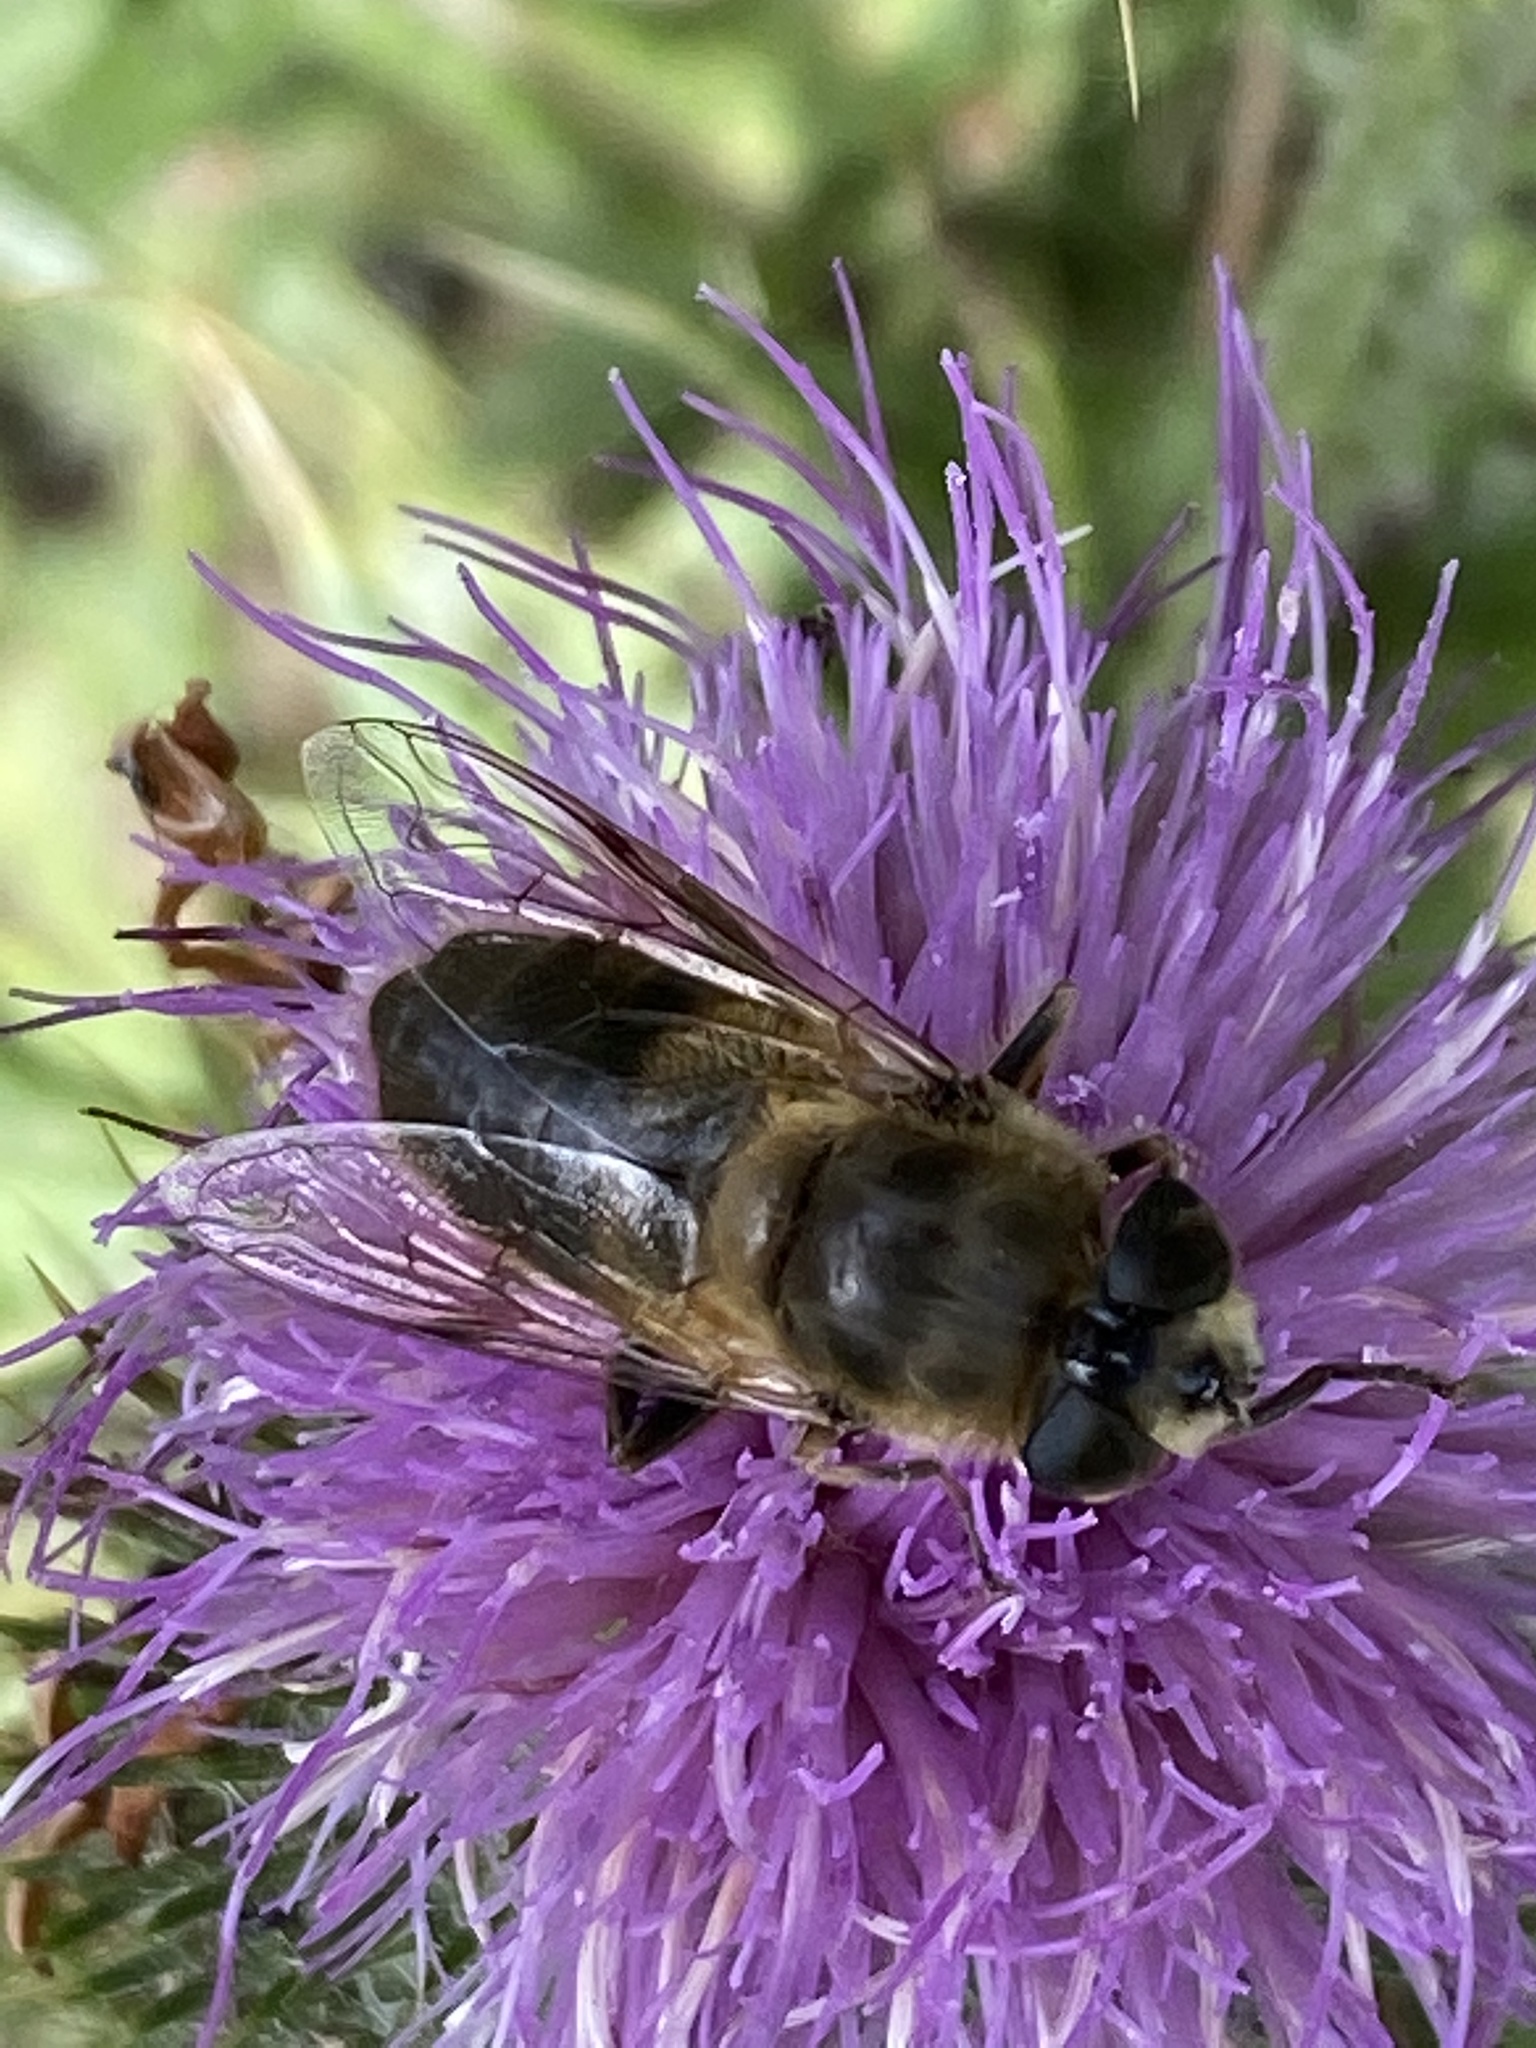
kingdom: Animalia
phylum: Arthropoda
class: Insecta
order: Diptera
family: Syrphidae
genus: Eristalis
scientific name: Eristalis tenax
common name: Drone fly
